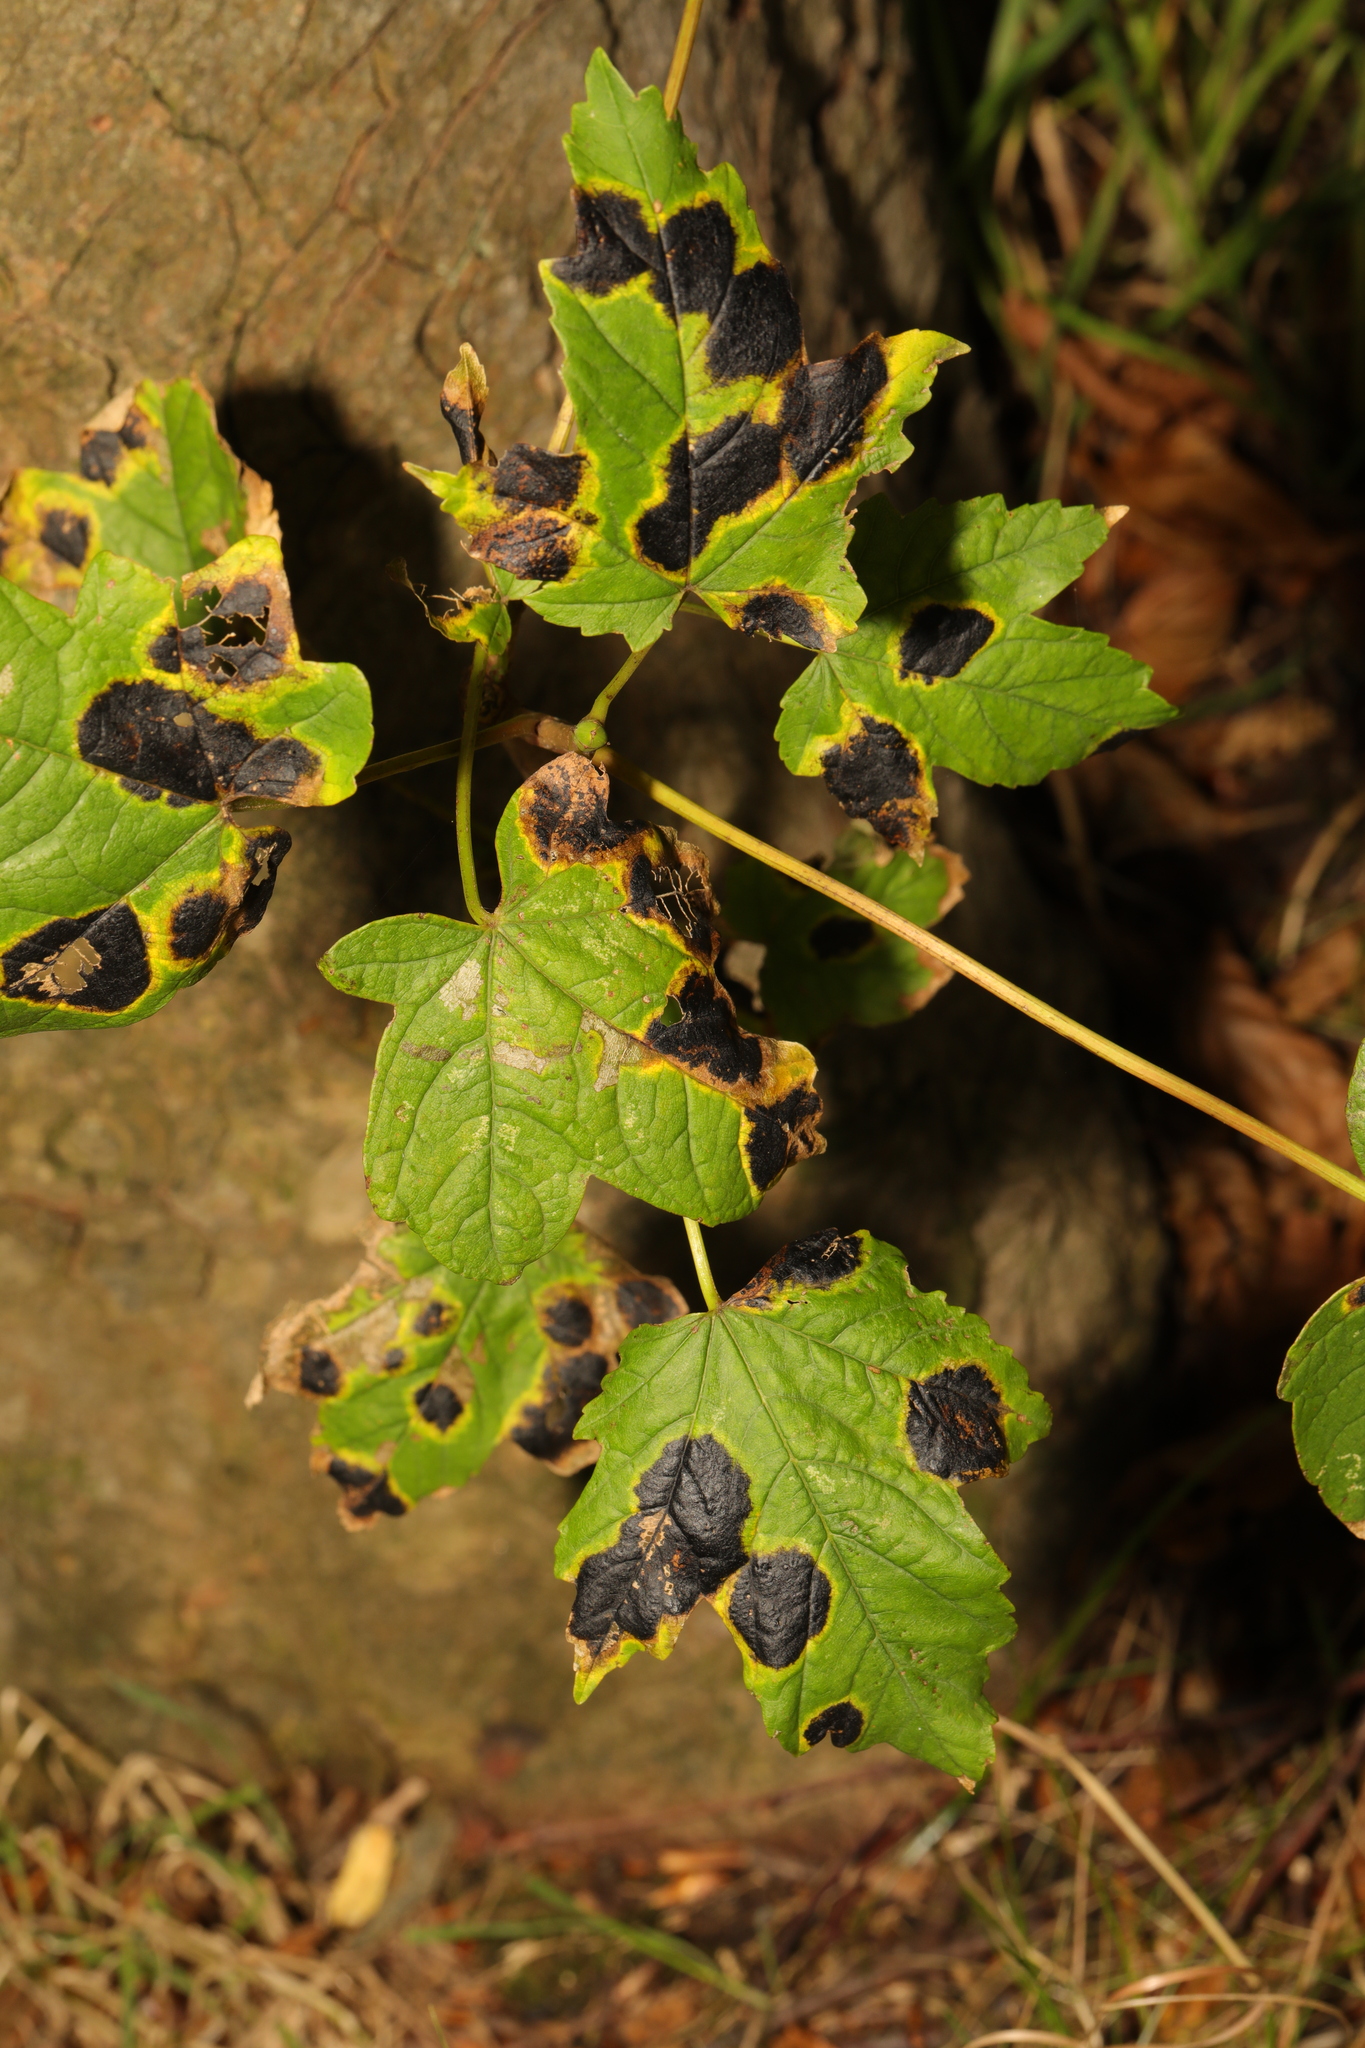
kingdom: Plantae
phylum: Tracheophyta
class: Magnoliopsida
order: Sapindales
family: Sapindaceae
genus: Acer
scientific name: Acer pseudoplatanus
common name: Sycamore
